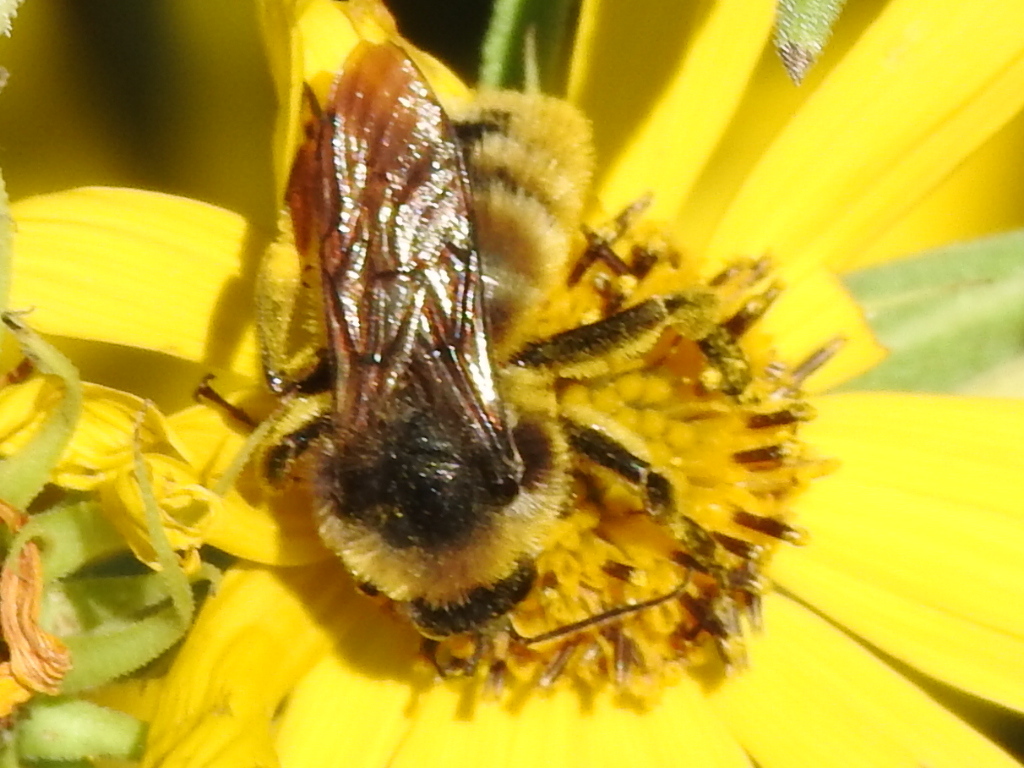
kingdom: Animalia
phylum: Arthropoda
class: Insecta
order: Hymenoptera
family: Apidae
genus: Bombus
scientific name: Bombus pensylvanicus
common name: Bumble bee
